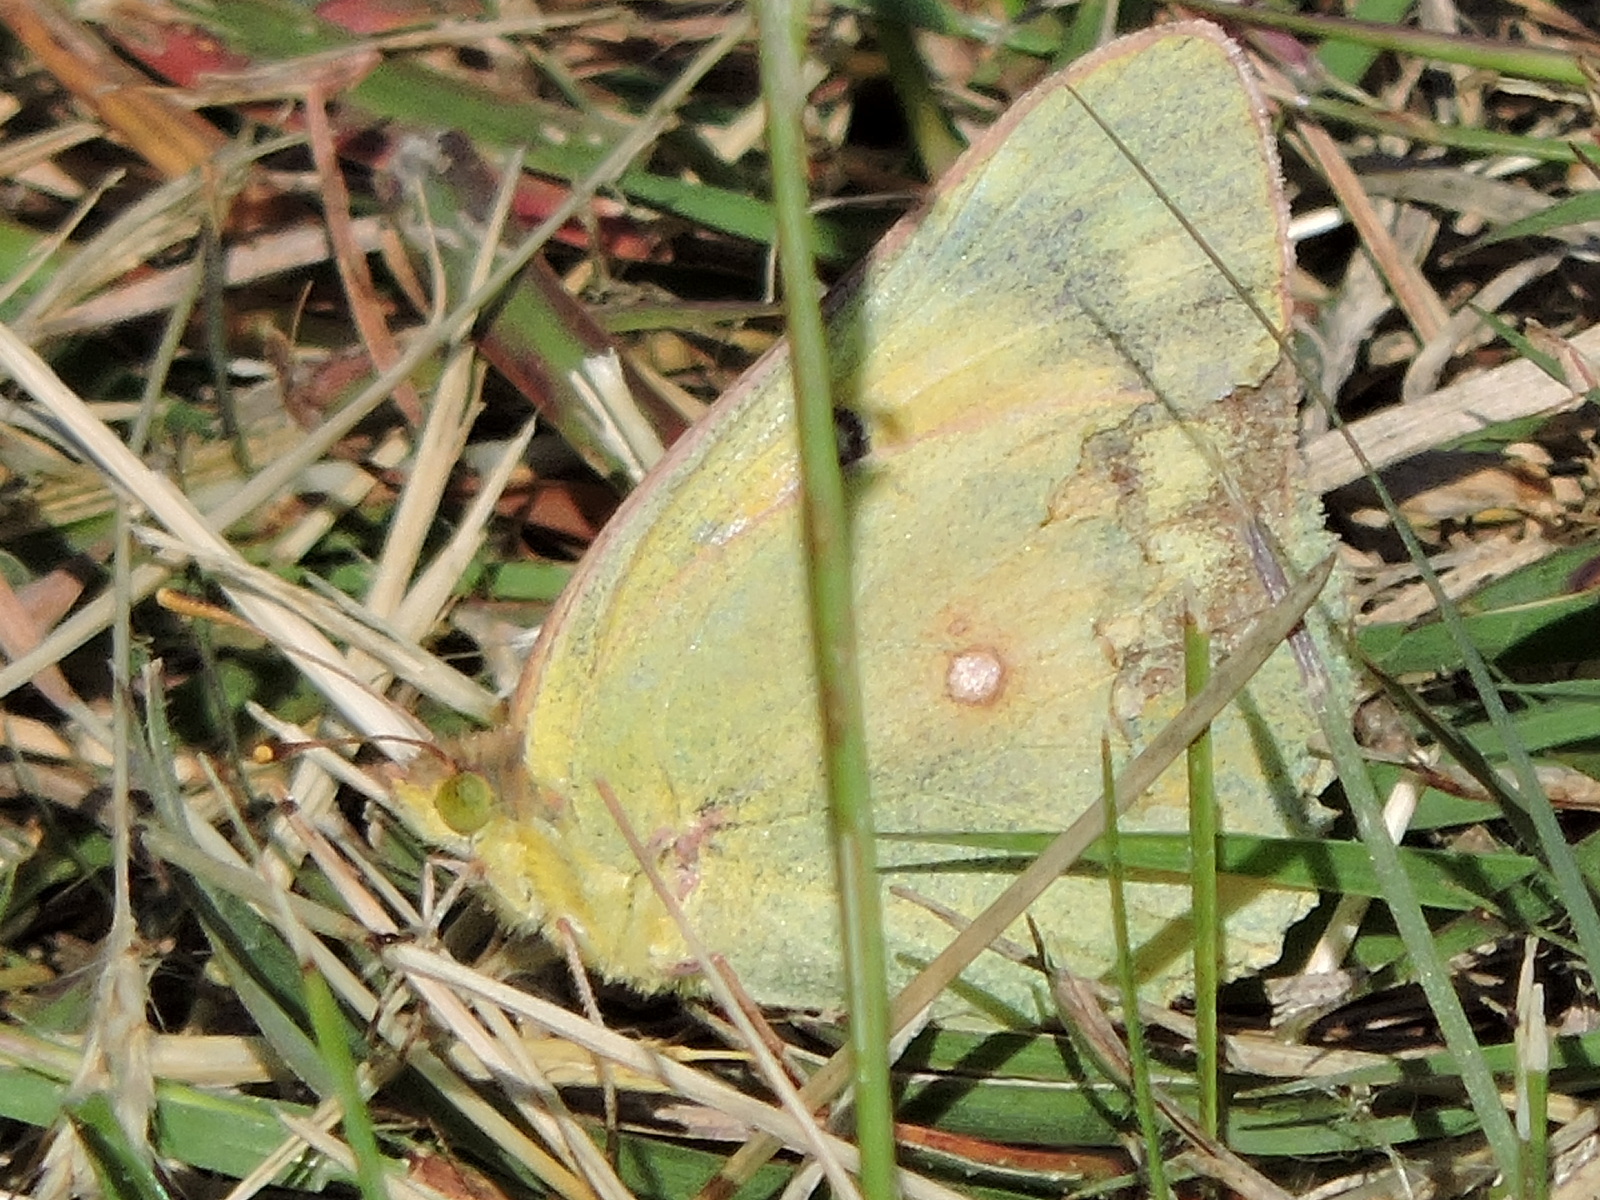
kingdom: Animalia
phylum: Arthropoda
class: Insecta
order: Lepidoptera
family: Pieridae
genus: Colias
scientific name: Colias eurytheme
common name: Alfalfa butterfly
